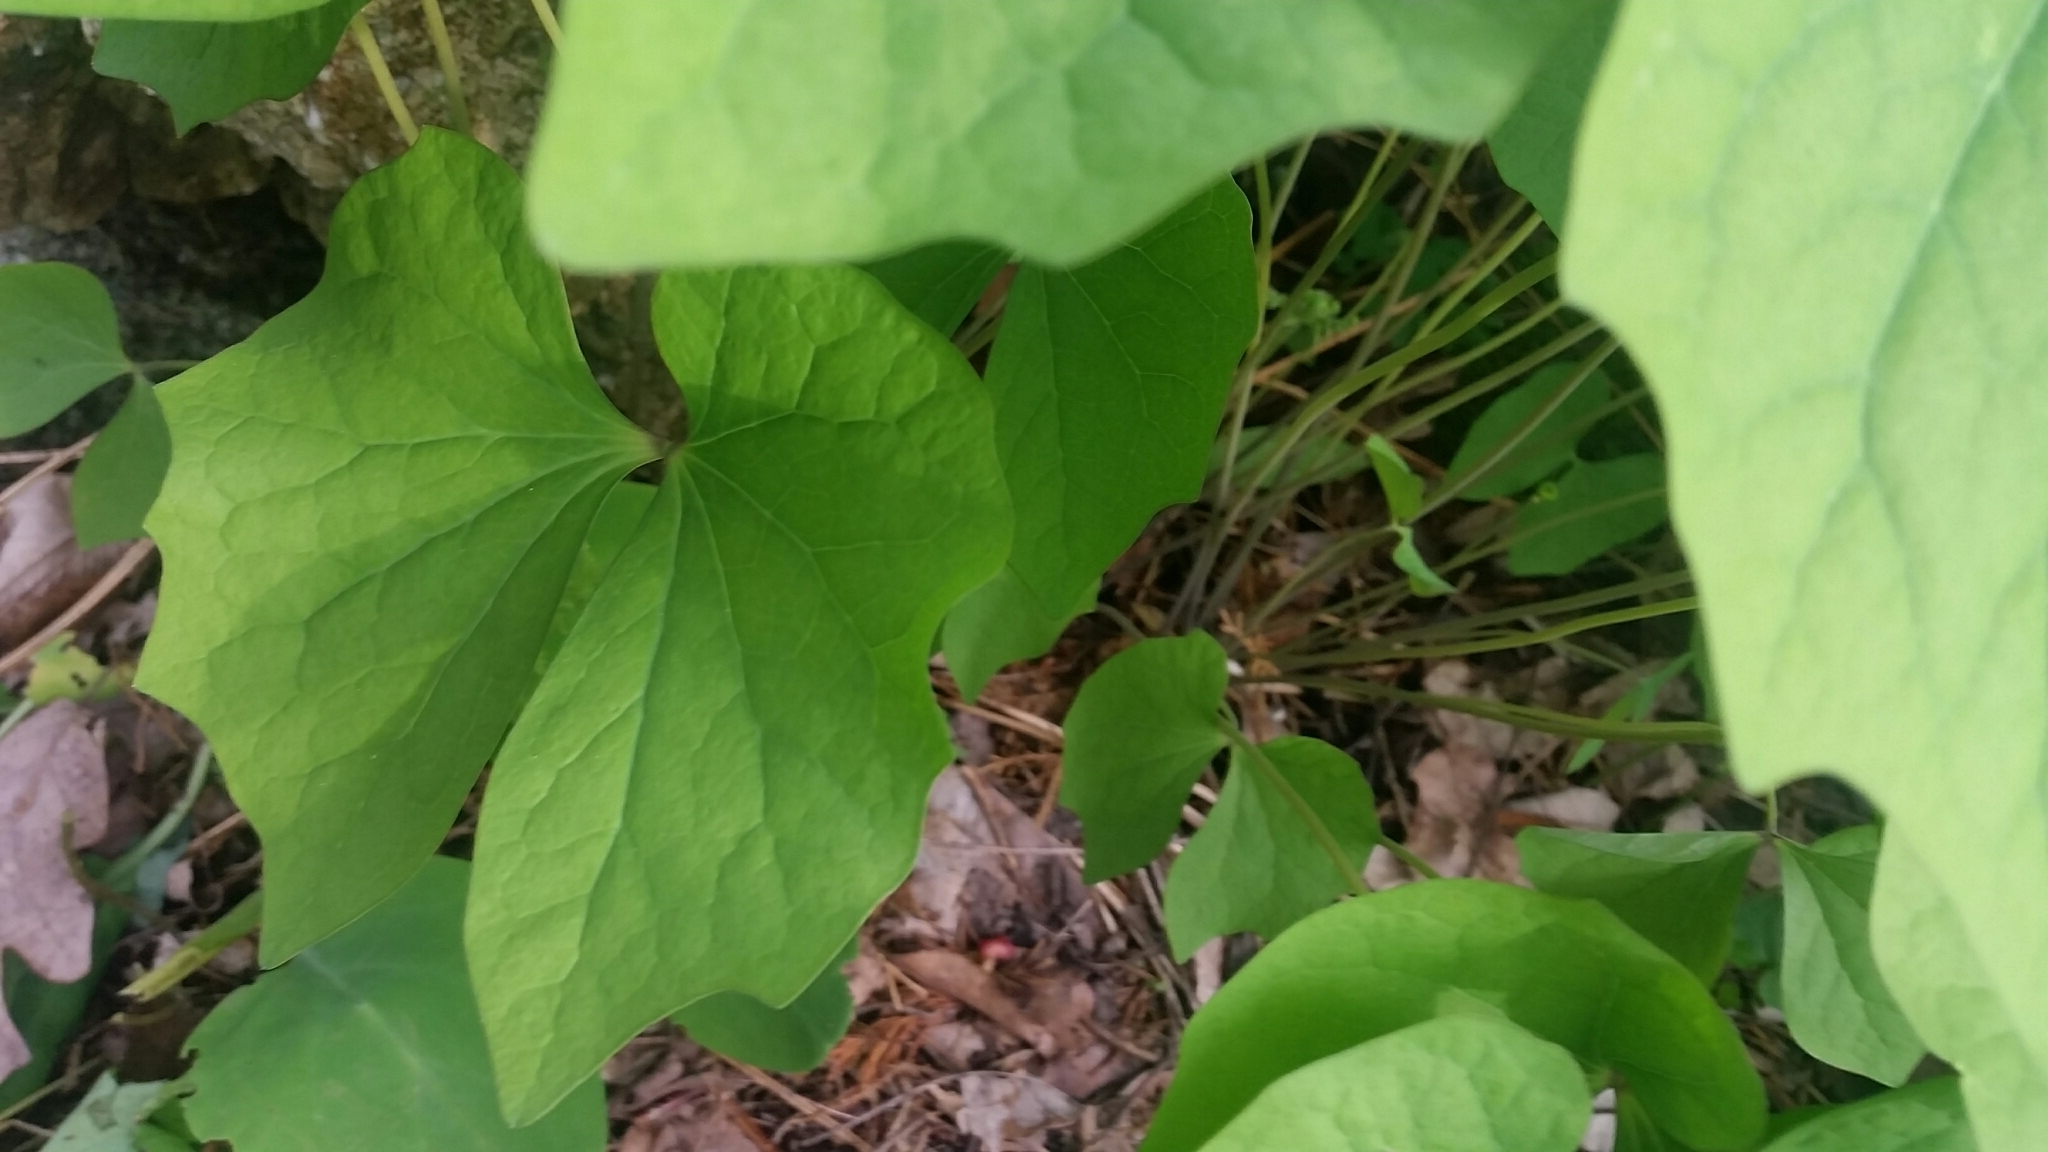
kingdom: Plantae
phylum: Tracheophyta
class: Magnoliopsida
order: Ranunculales
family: Berberidaceae
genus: Jeffersonia
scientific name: Jeffersonia diphylla
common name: Rheumatism-root
